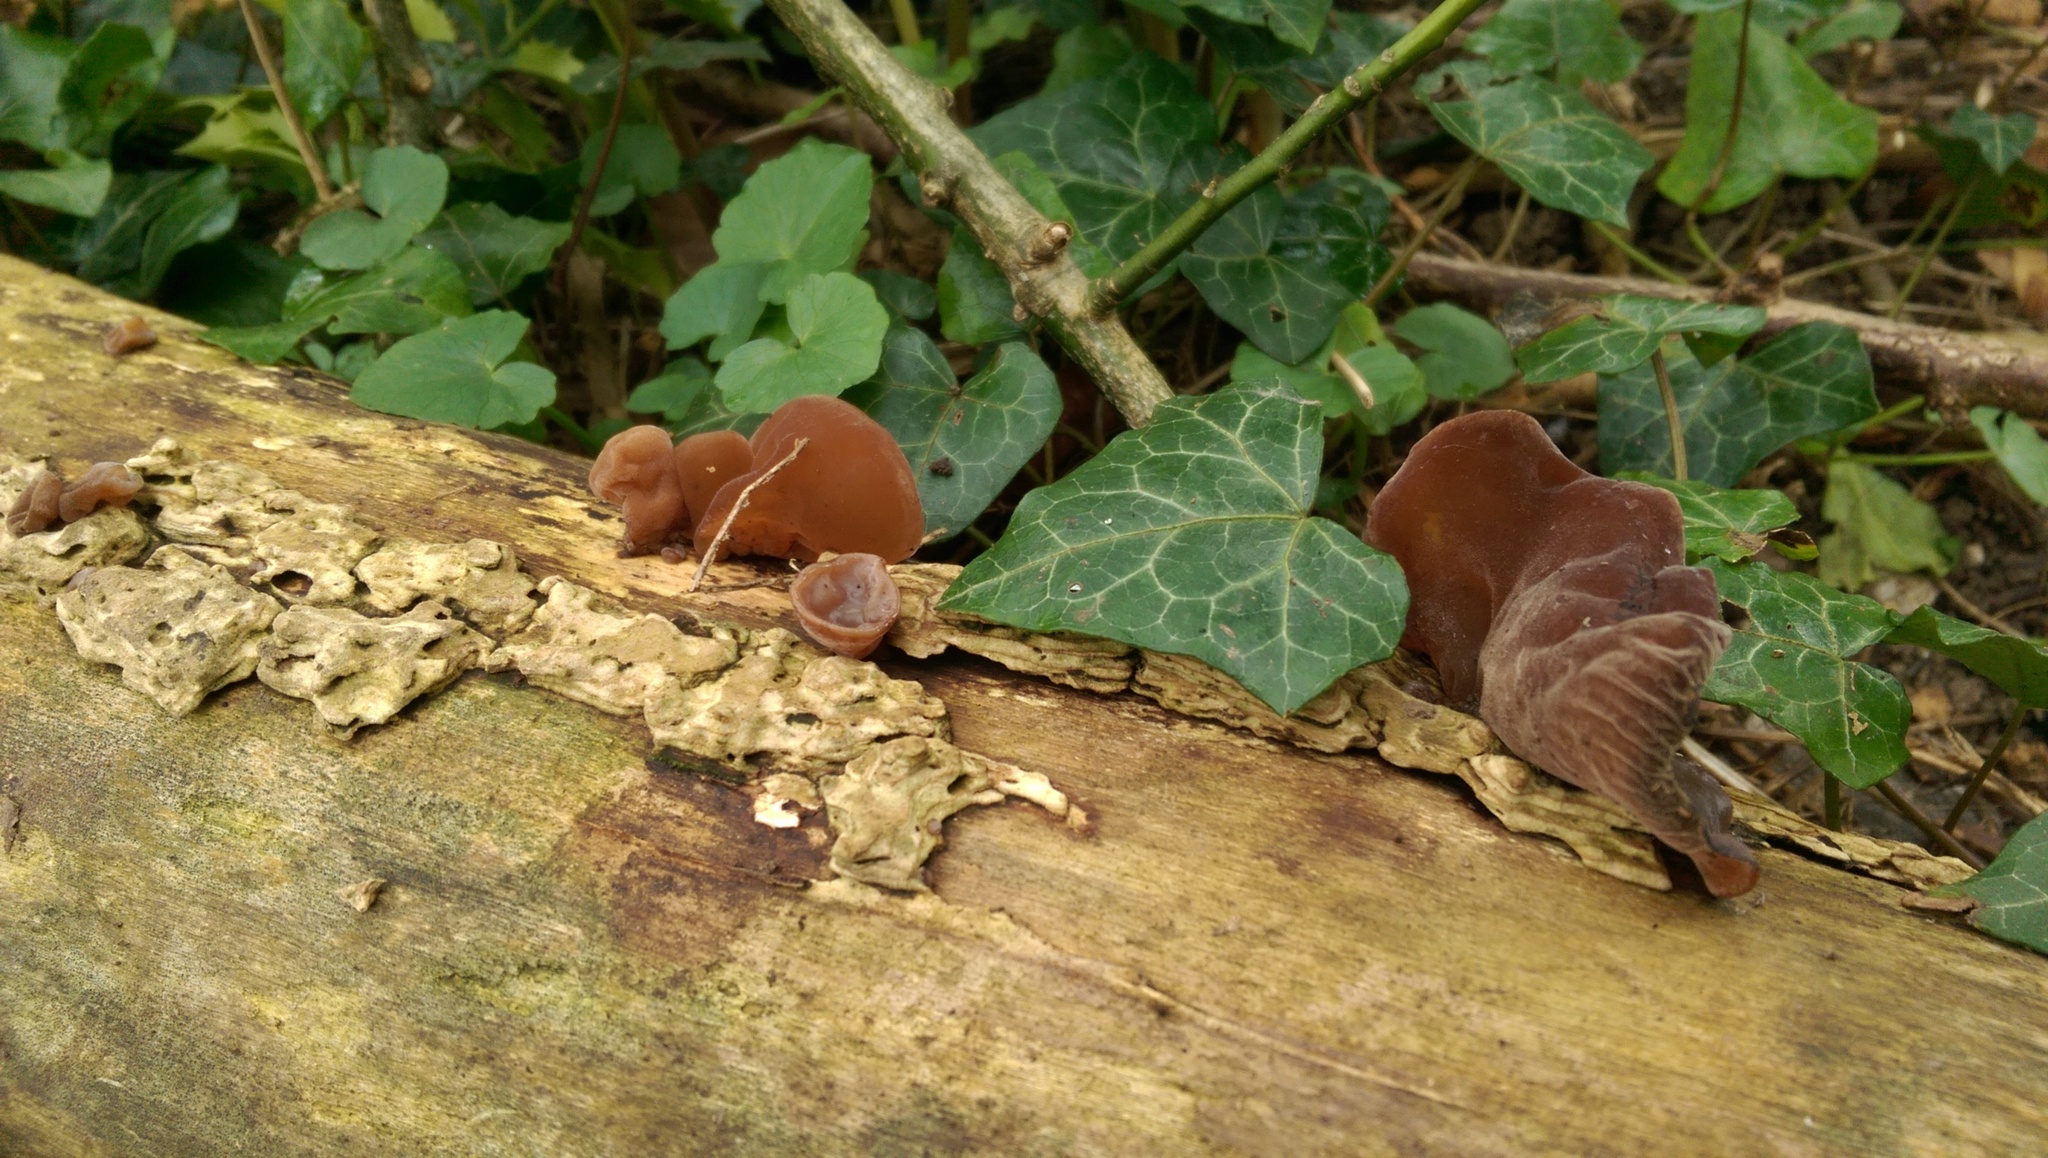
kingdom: Fungi
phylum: Basidiomycota
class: Agaricomycetes
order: Auriculariales
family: Auriculariaceae
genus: Auricularia
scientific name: Auricularia auricula-judae
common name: Jelly ear
